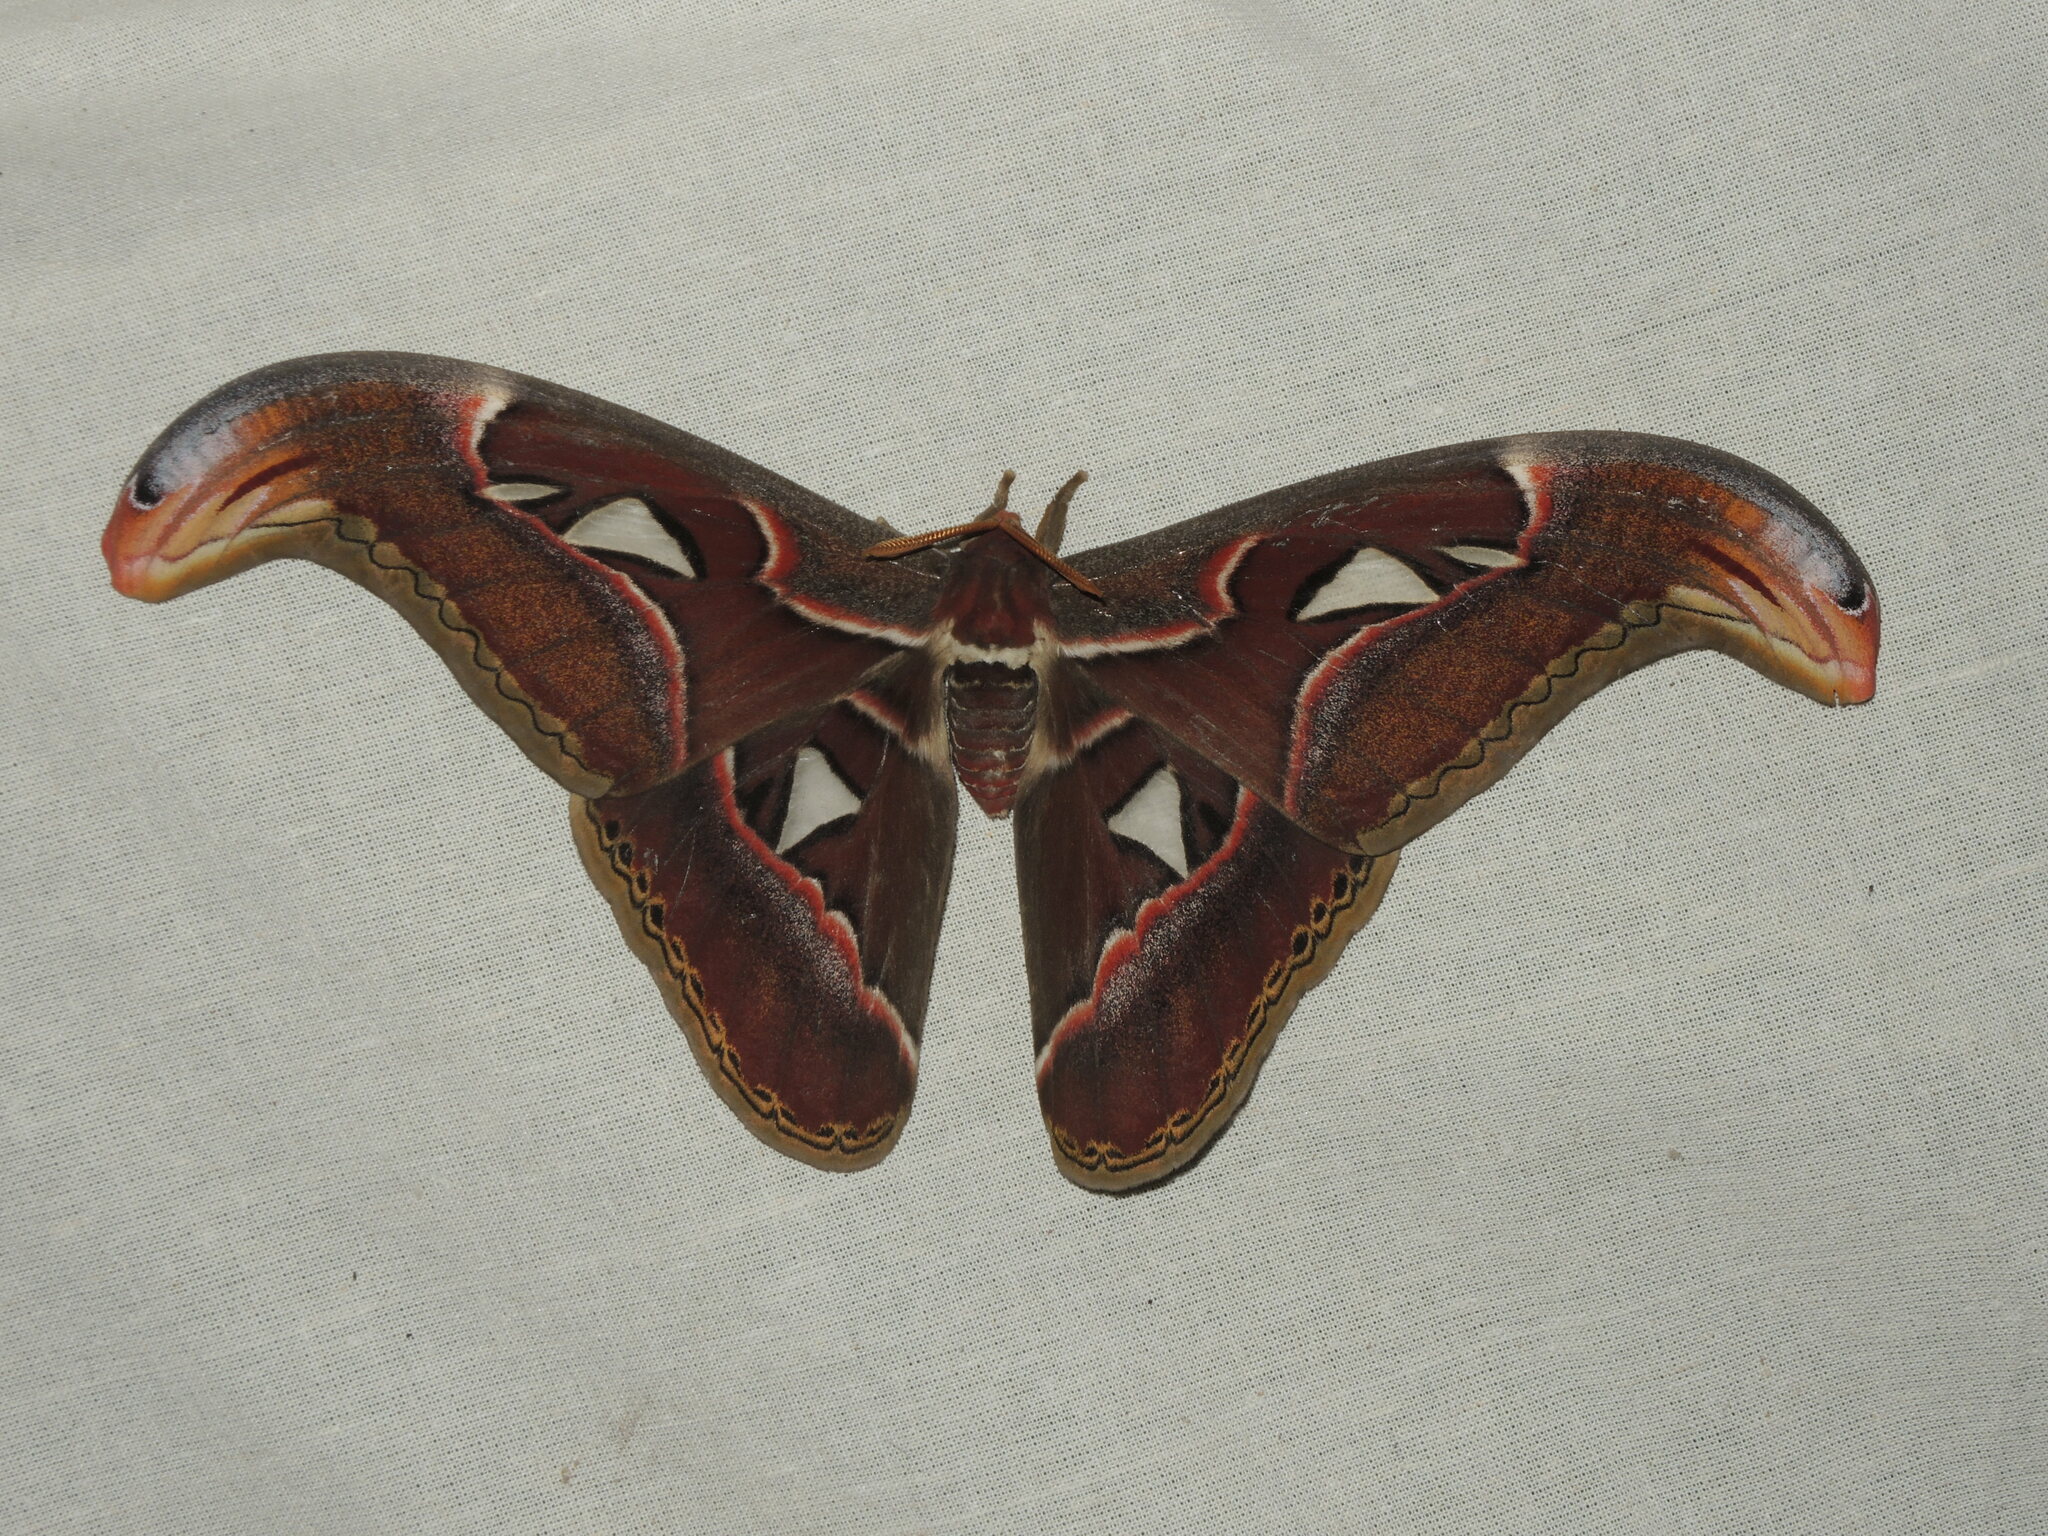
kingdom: Animalia
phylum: Arthropoda
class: Insecta
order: Lepidoptera
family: Saturniidae
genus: Attacus
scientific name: Attacus taprobanis
